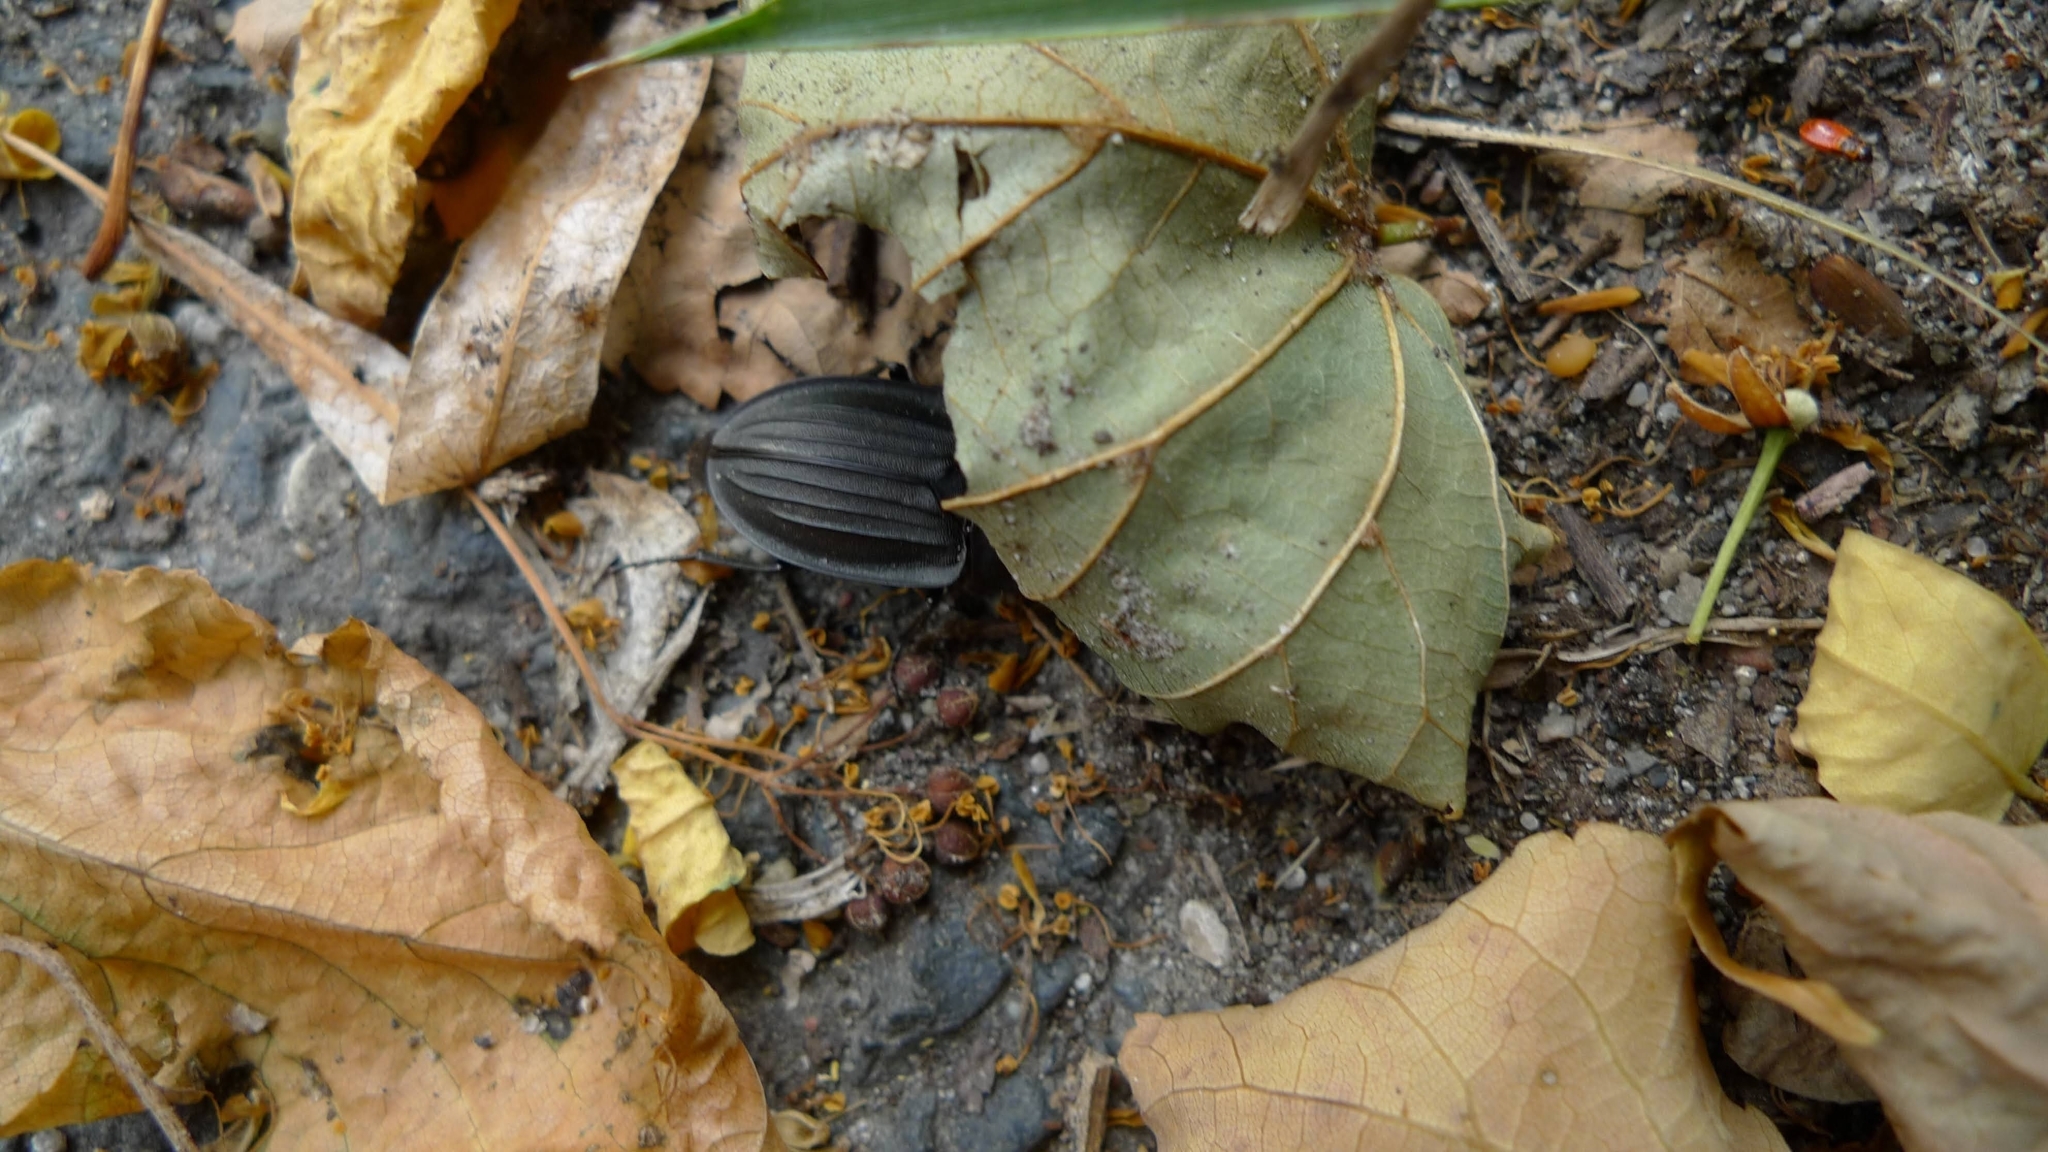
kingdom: Animalia
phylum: Arthropoda
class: Insecta
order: Coleoptera
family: Staphylinidae
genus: Silpha
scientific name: Silpha carinata
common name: Silphid beetle
